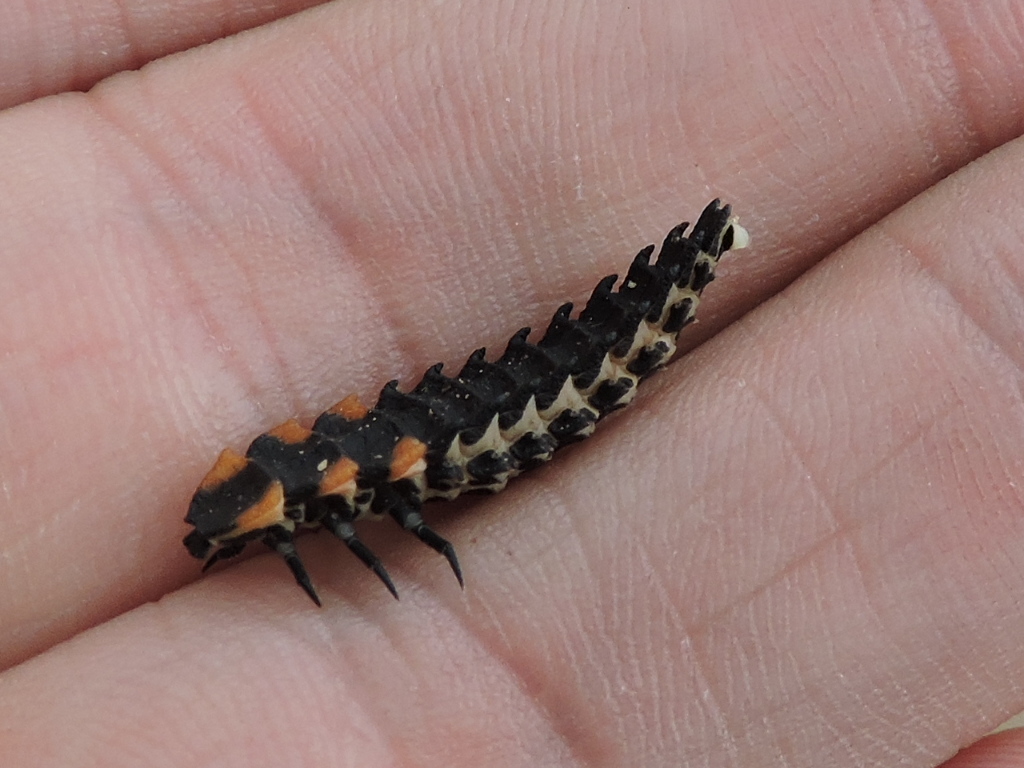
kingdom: Animalia
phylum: Arthropoda
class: Insecta
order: Coleoptera
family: Lycidae
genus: Lycus
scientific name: Lycus sanguineus
